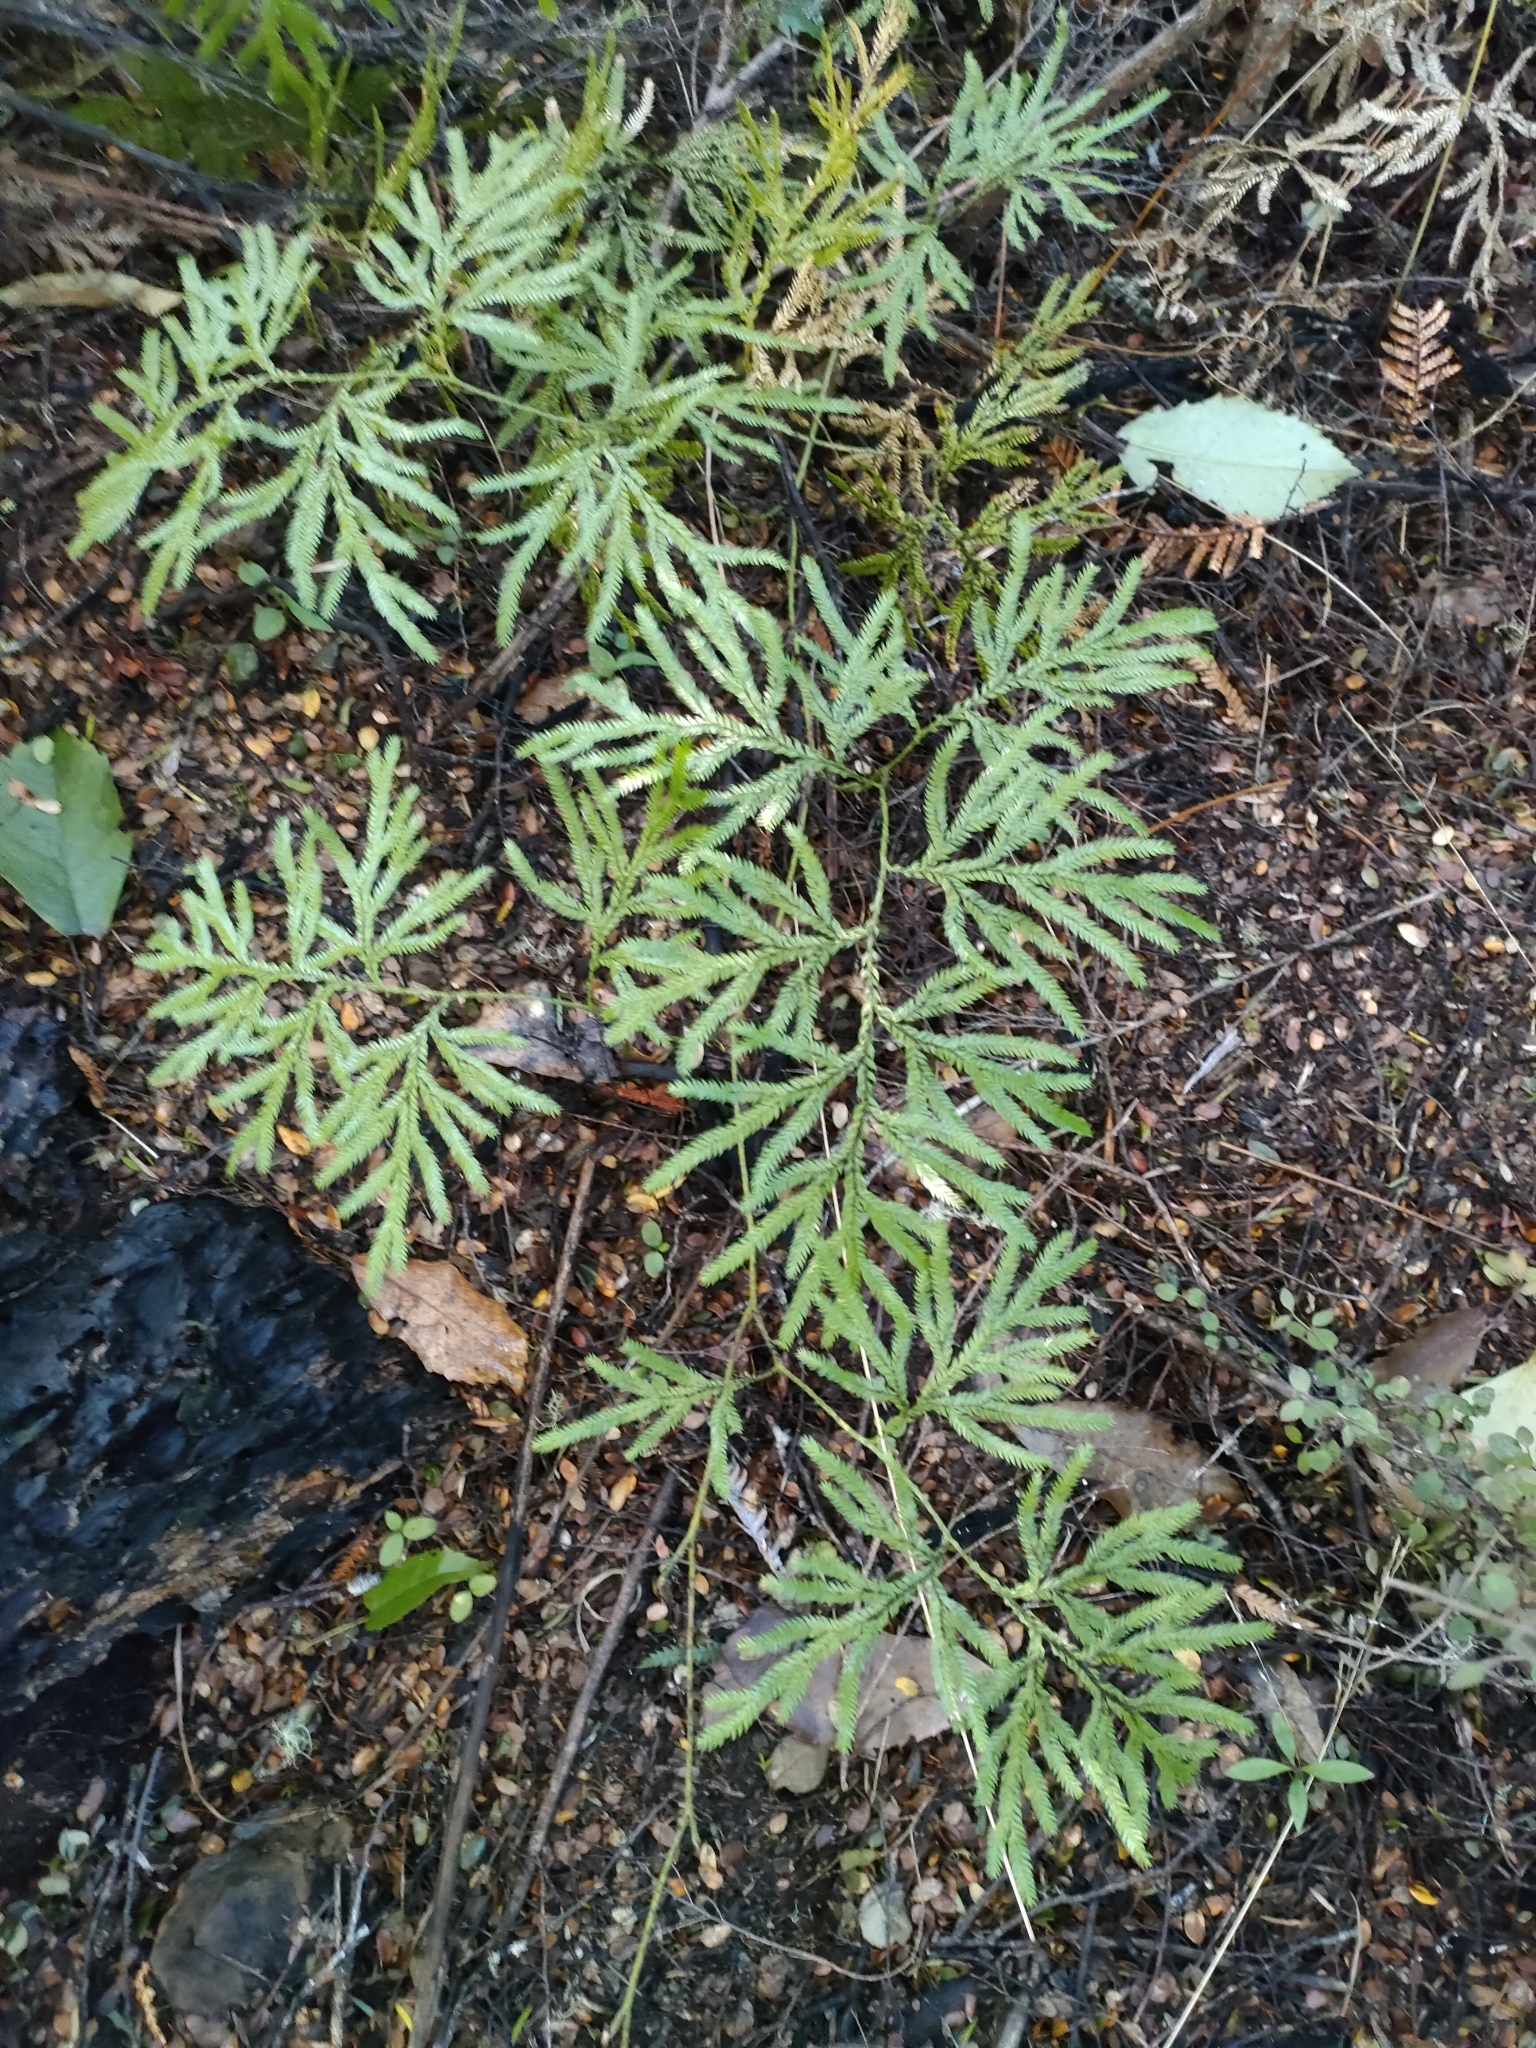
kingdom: Plantae
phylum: Tracheophyta
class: Lycopodiopsida
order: Lycopodiales
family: Lycopodiaceae
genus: Lycopodium
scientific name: Lycopodium volubile
